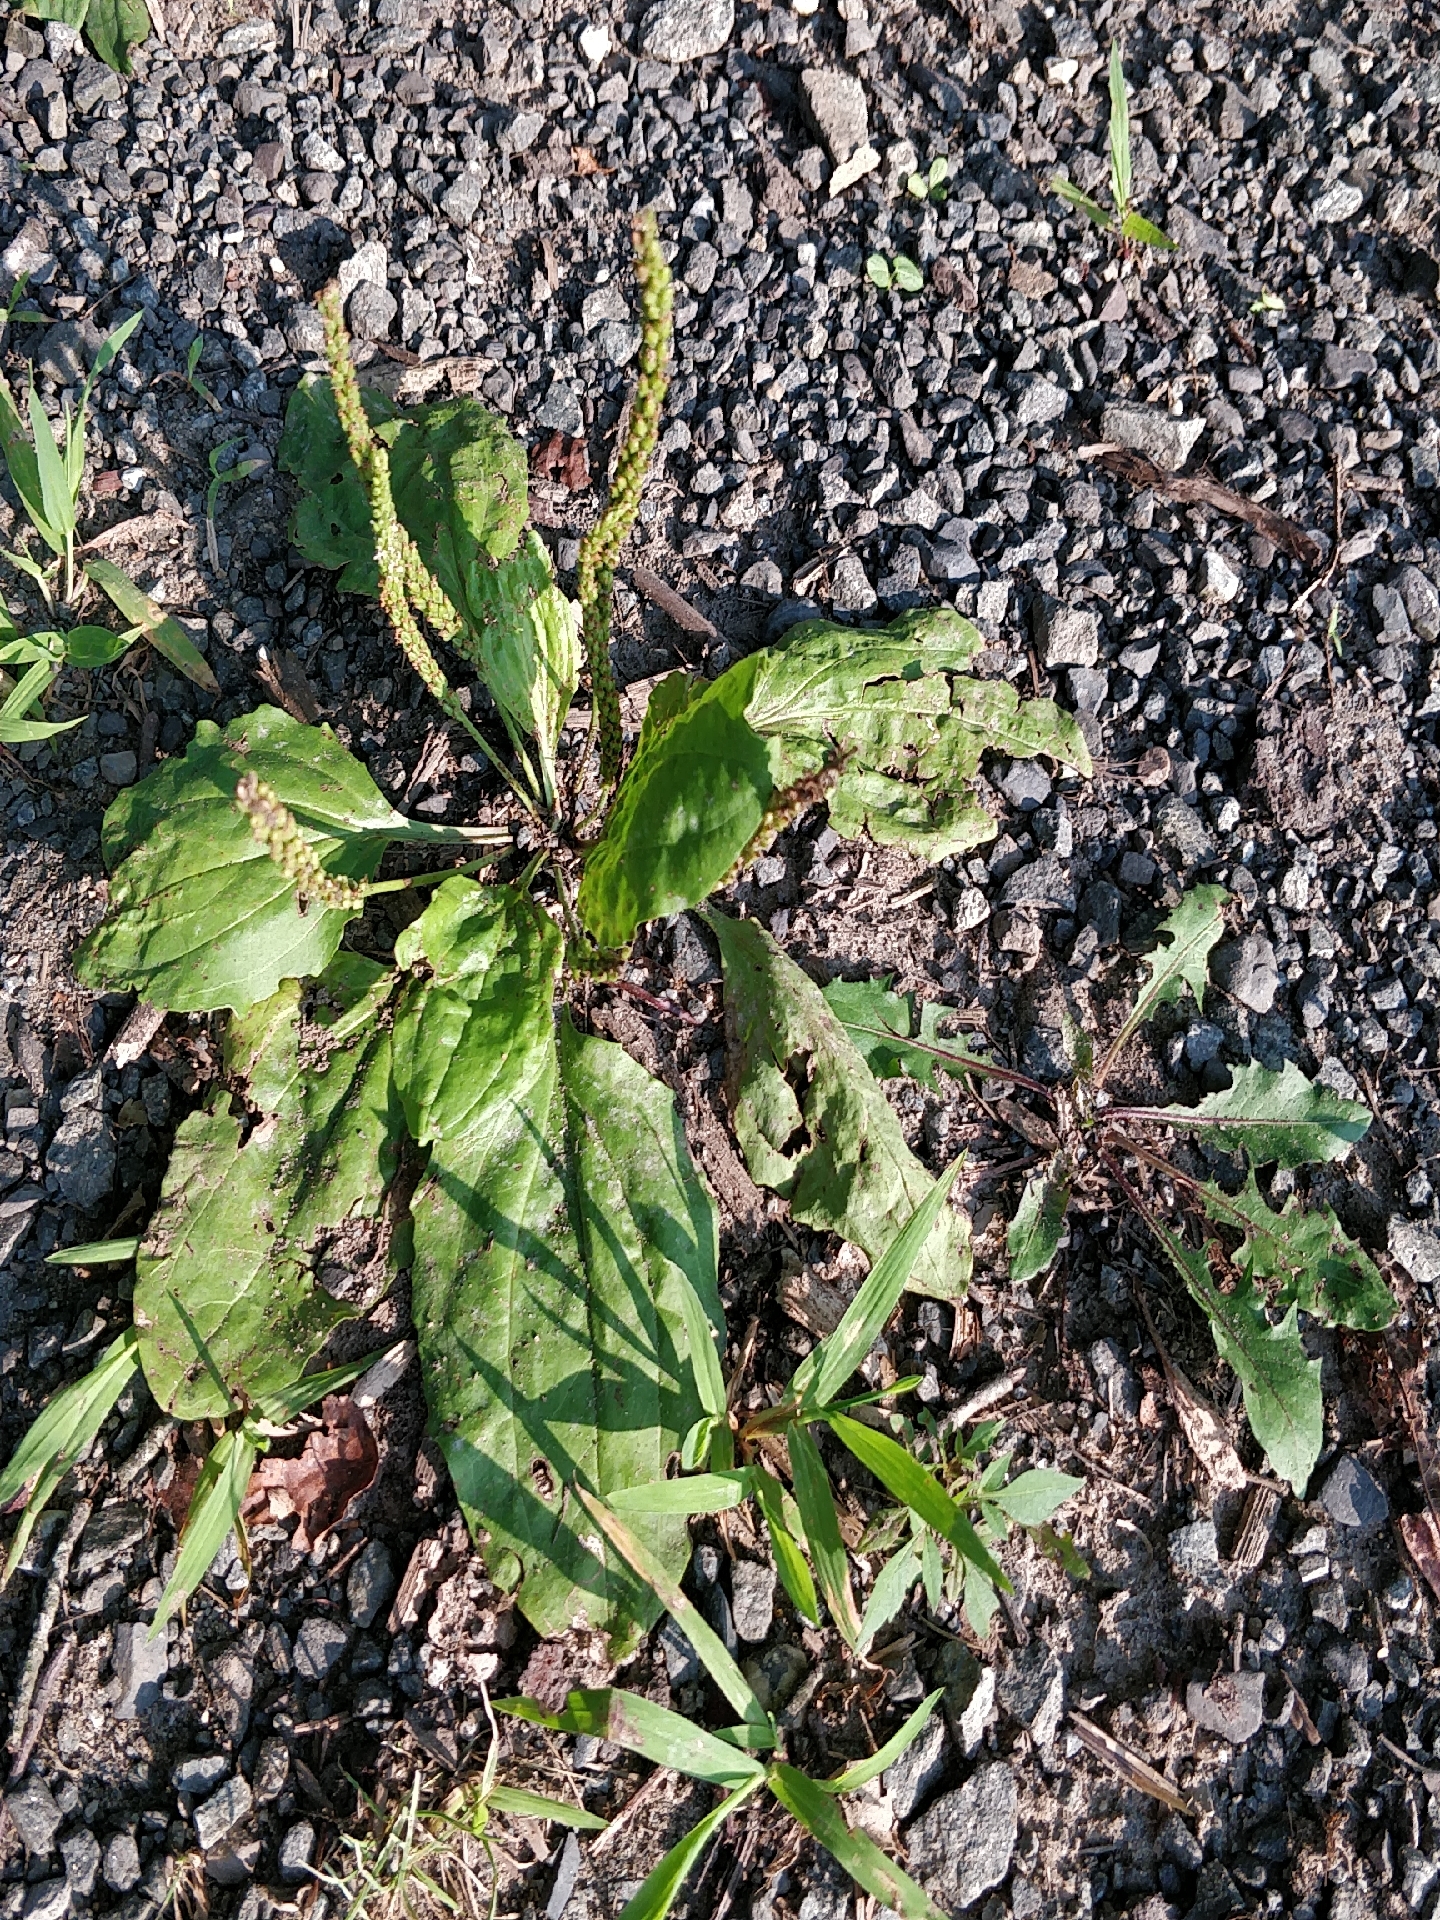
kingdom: Plantae
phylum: Tracheophyta
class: Magnoliopsida
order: Lamiales
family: Plantaginaceae
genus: Plantago
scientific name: Plantago major
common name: Common plantain
